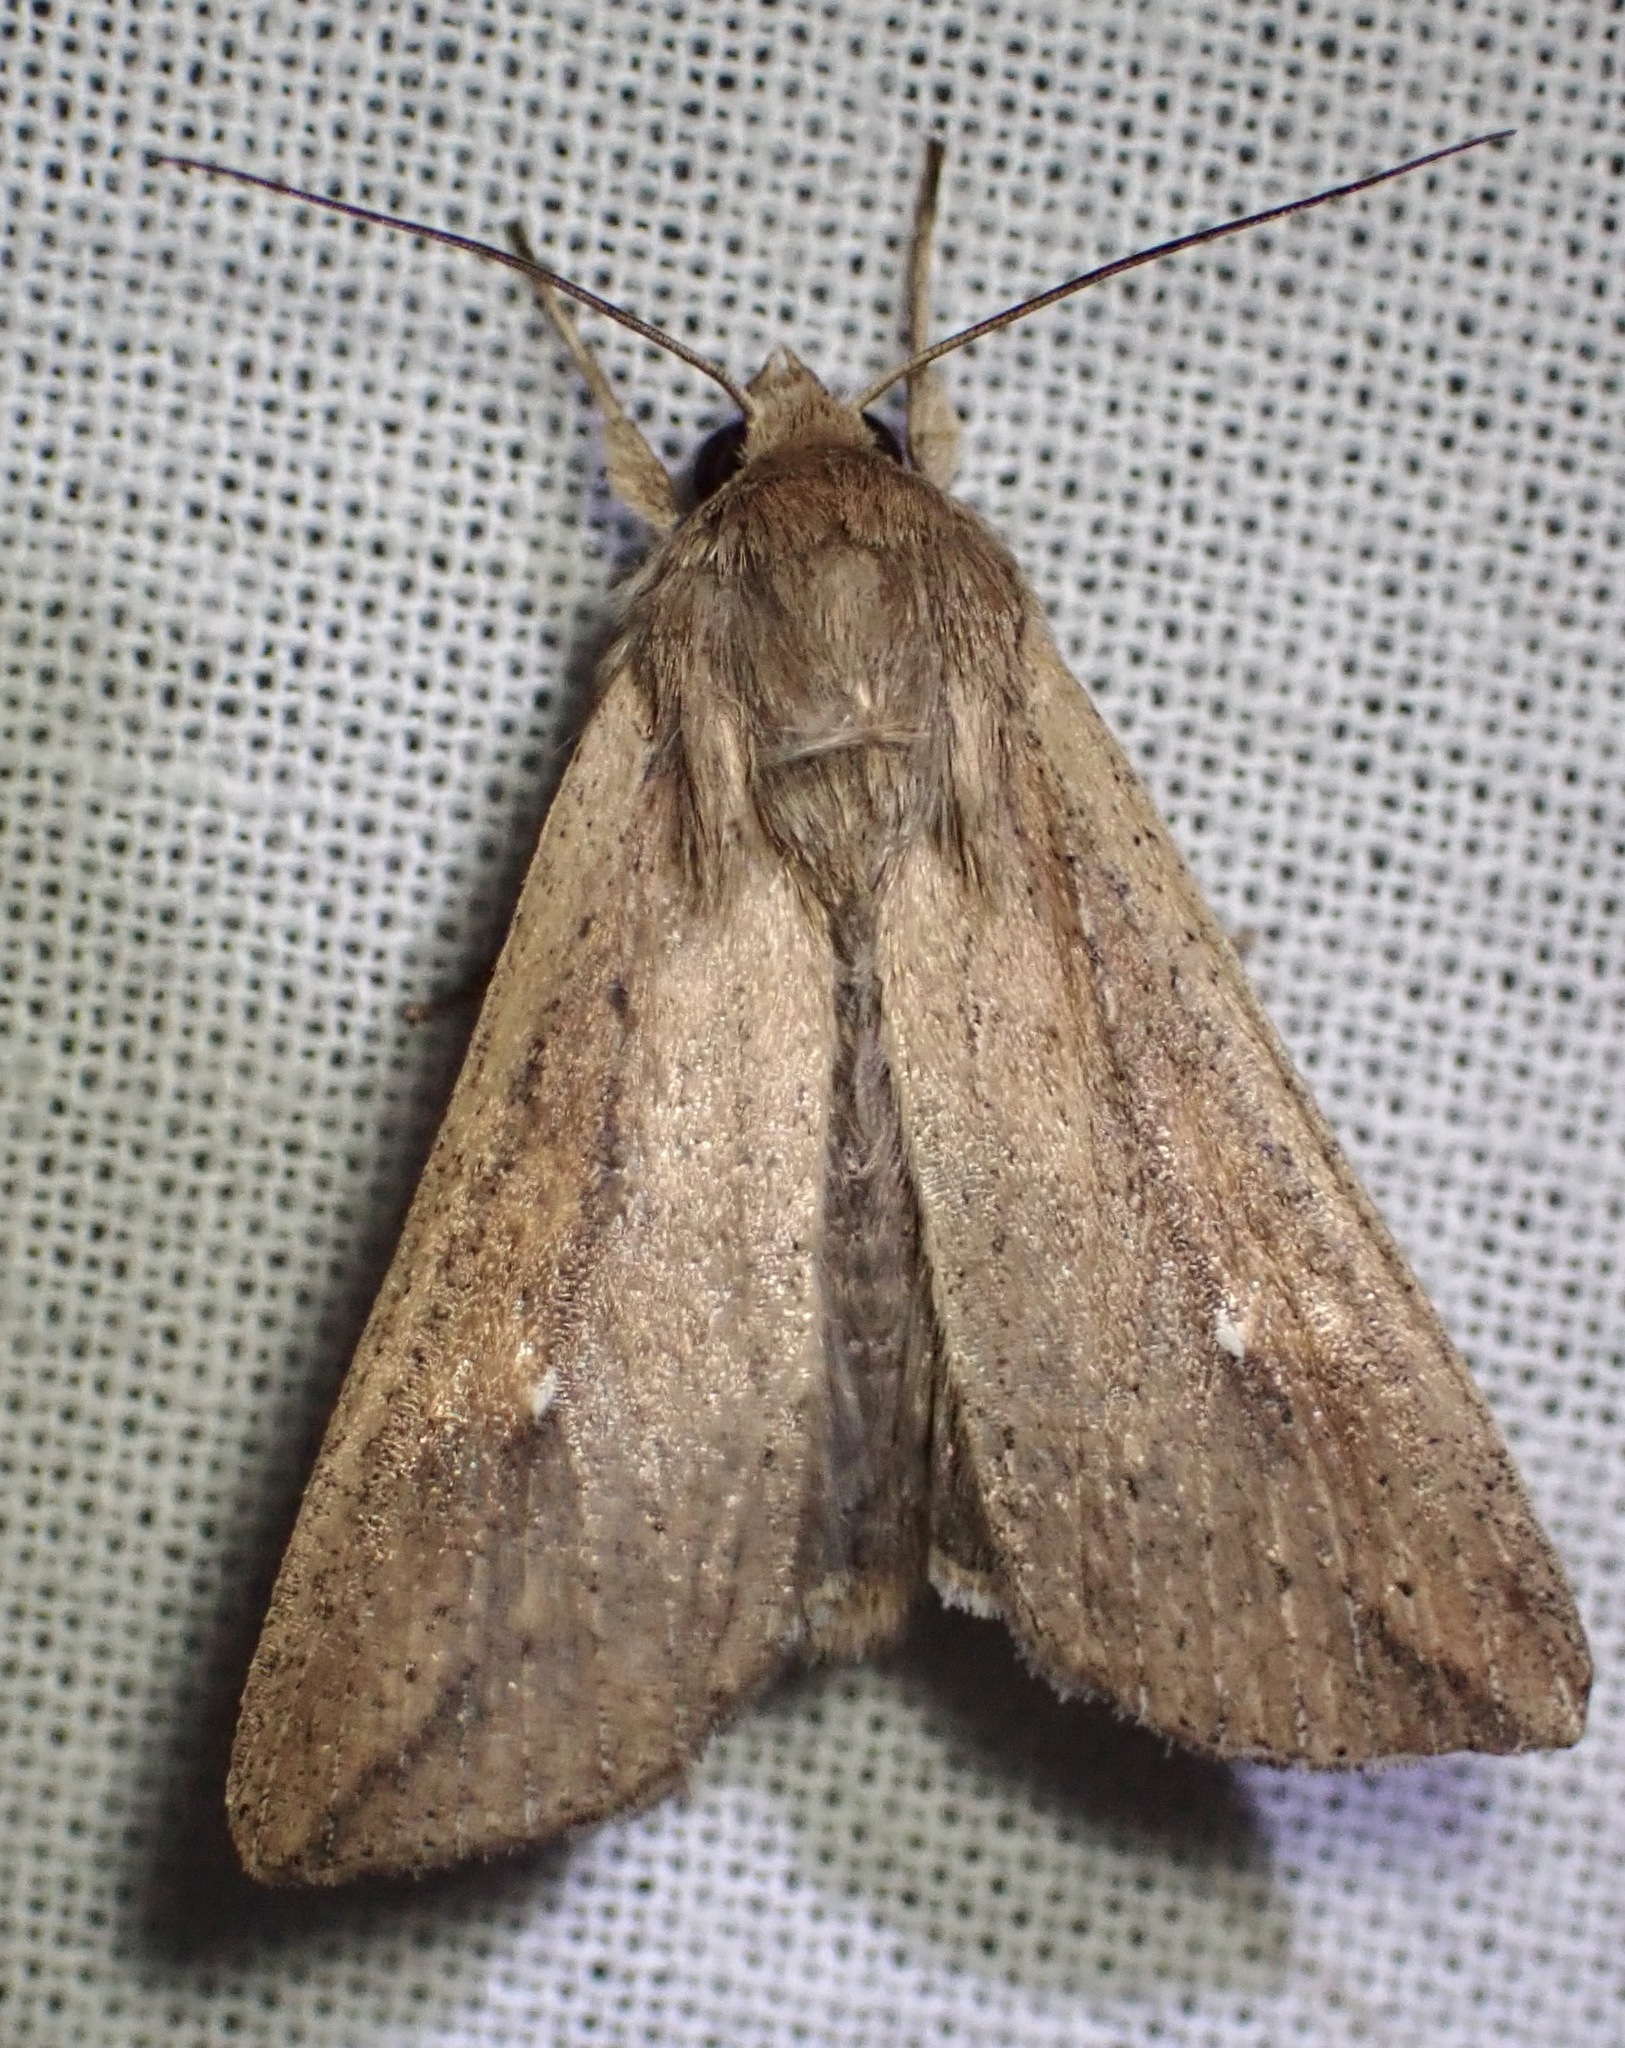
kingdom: Animalia
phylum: Arthropoda
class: Insecta
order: Lepidoptera
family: Noctuidae
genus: Mythimna
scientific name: Mythimna unipuncta
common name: White-speck
